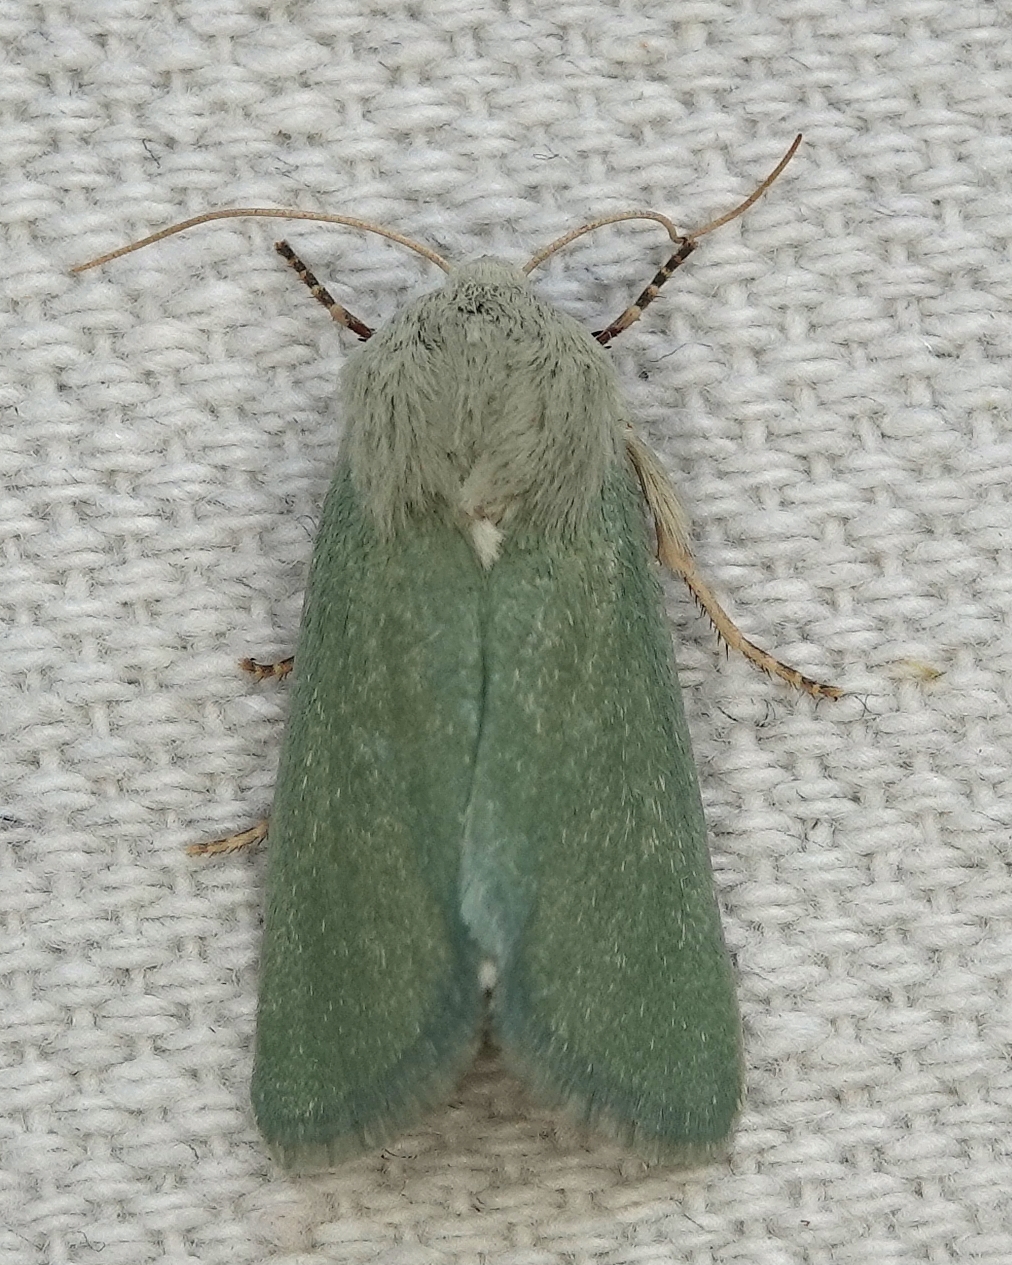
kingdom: Animalia
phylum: Arthropoda
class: Insecta
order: Lepidoptera
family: Noctuidae
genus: Schinia
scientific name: Schinia simplex
